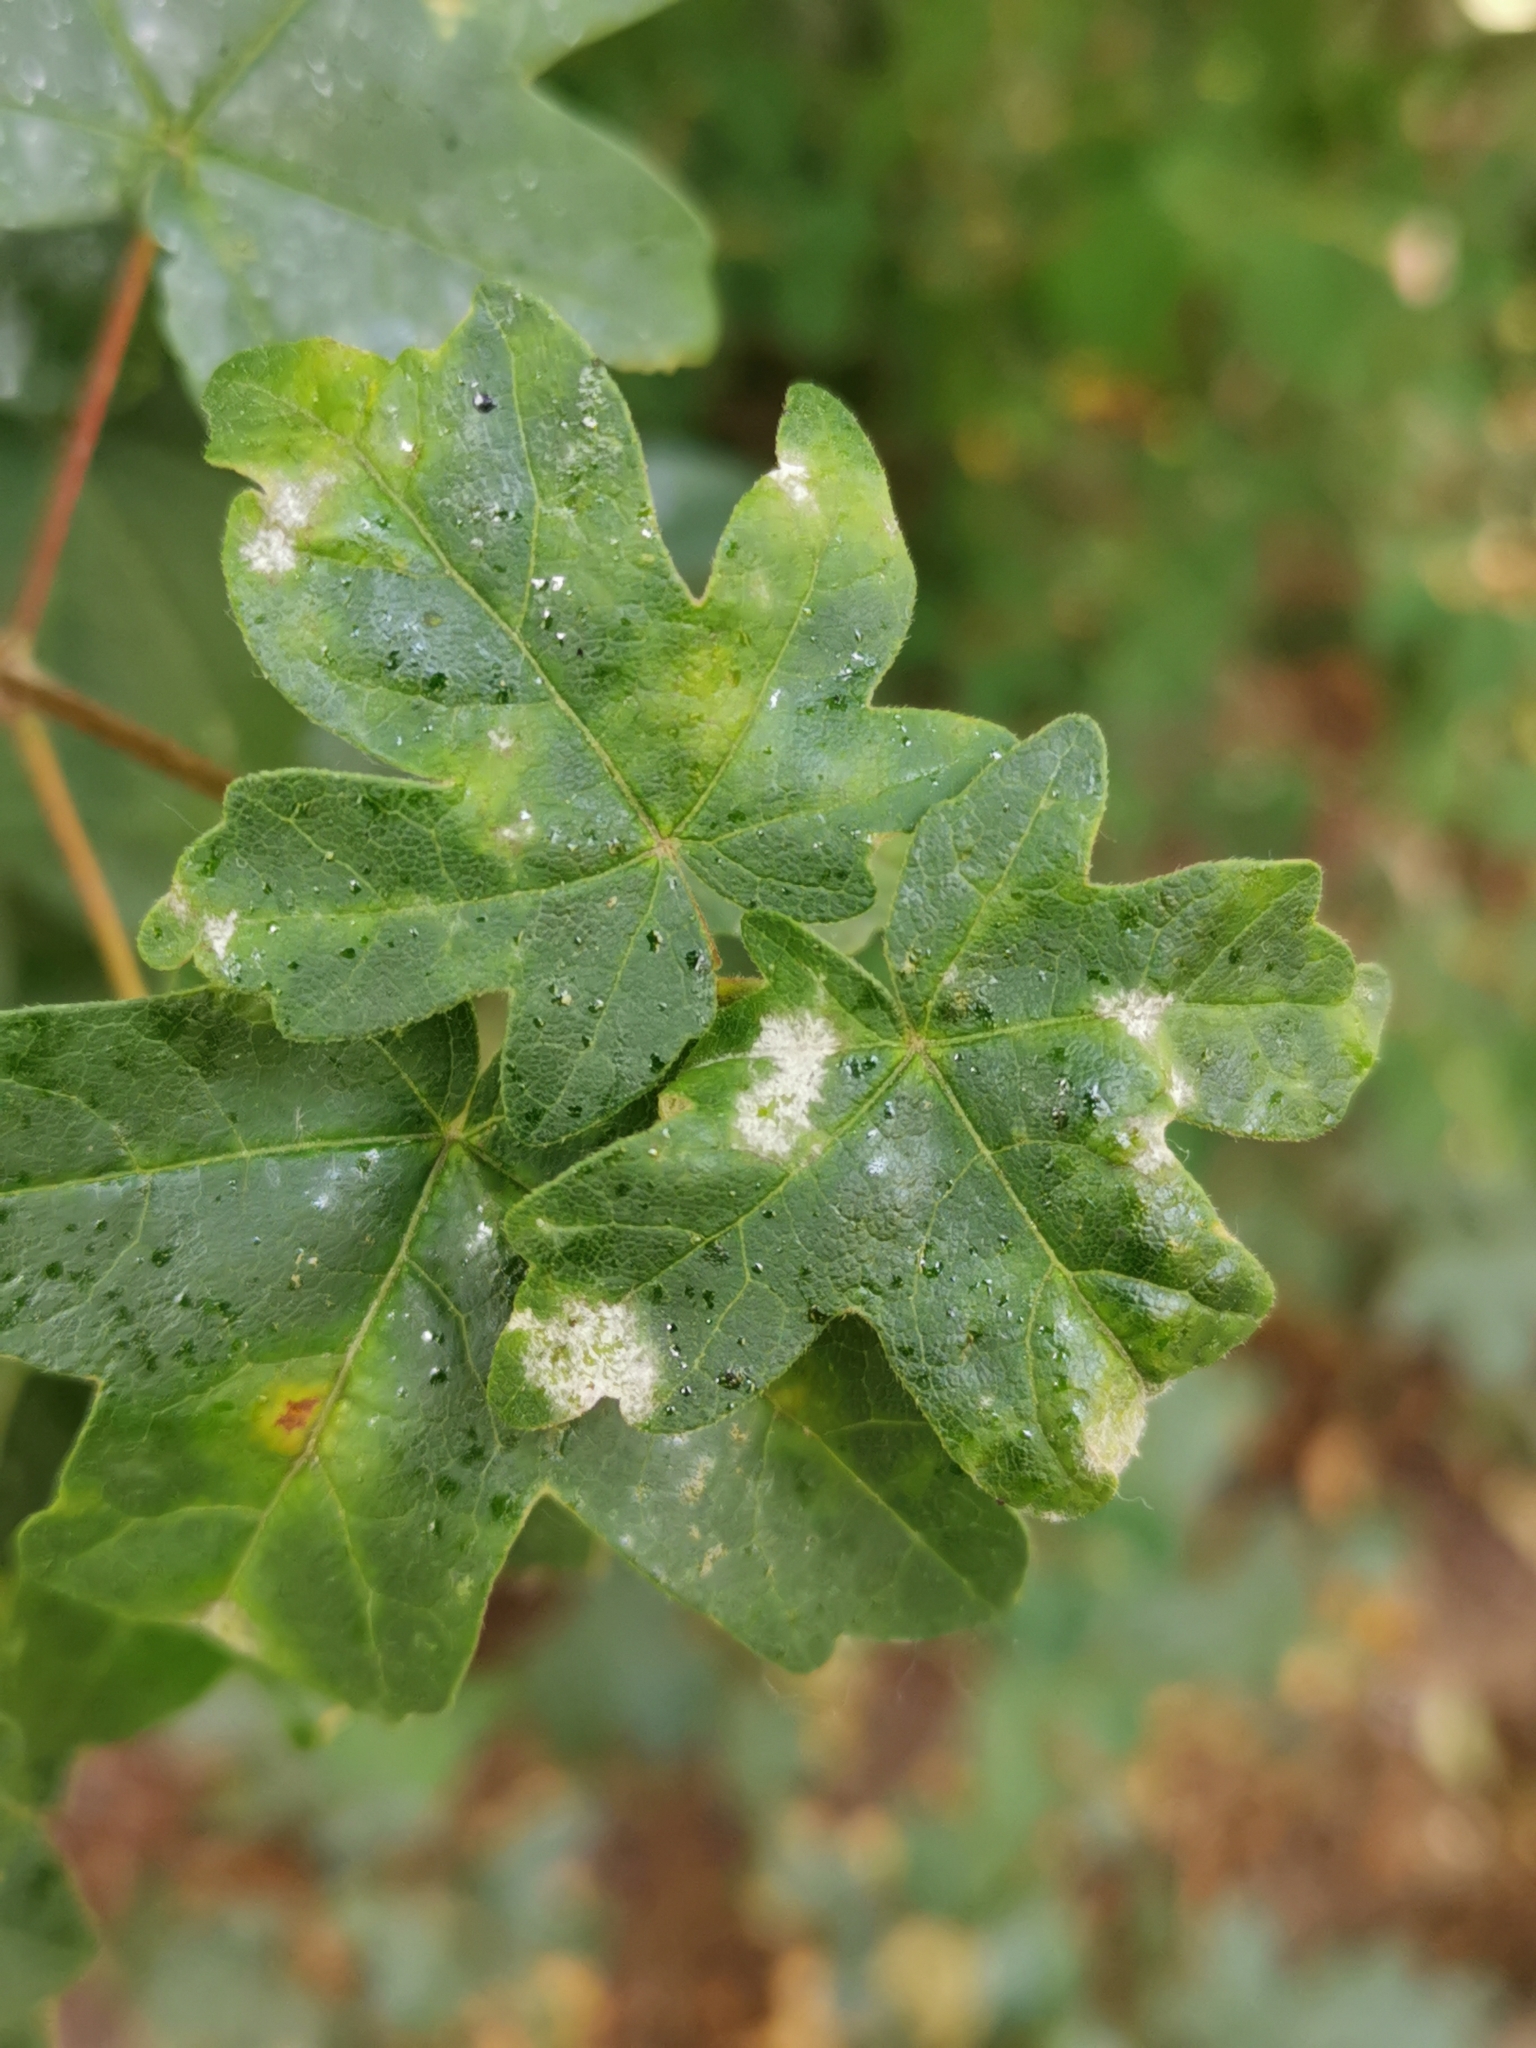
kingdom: Fungi
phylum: Ascomycota
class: Leotiomycetes
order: Helotiales
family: Erysiphaceae
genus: Sawadaea
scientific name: Sawadaea bicornis
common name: Maple mildew
